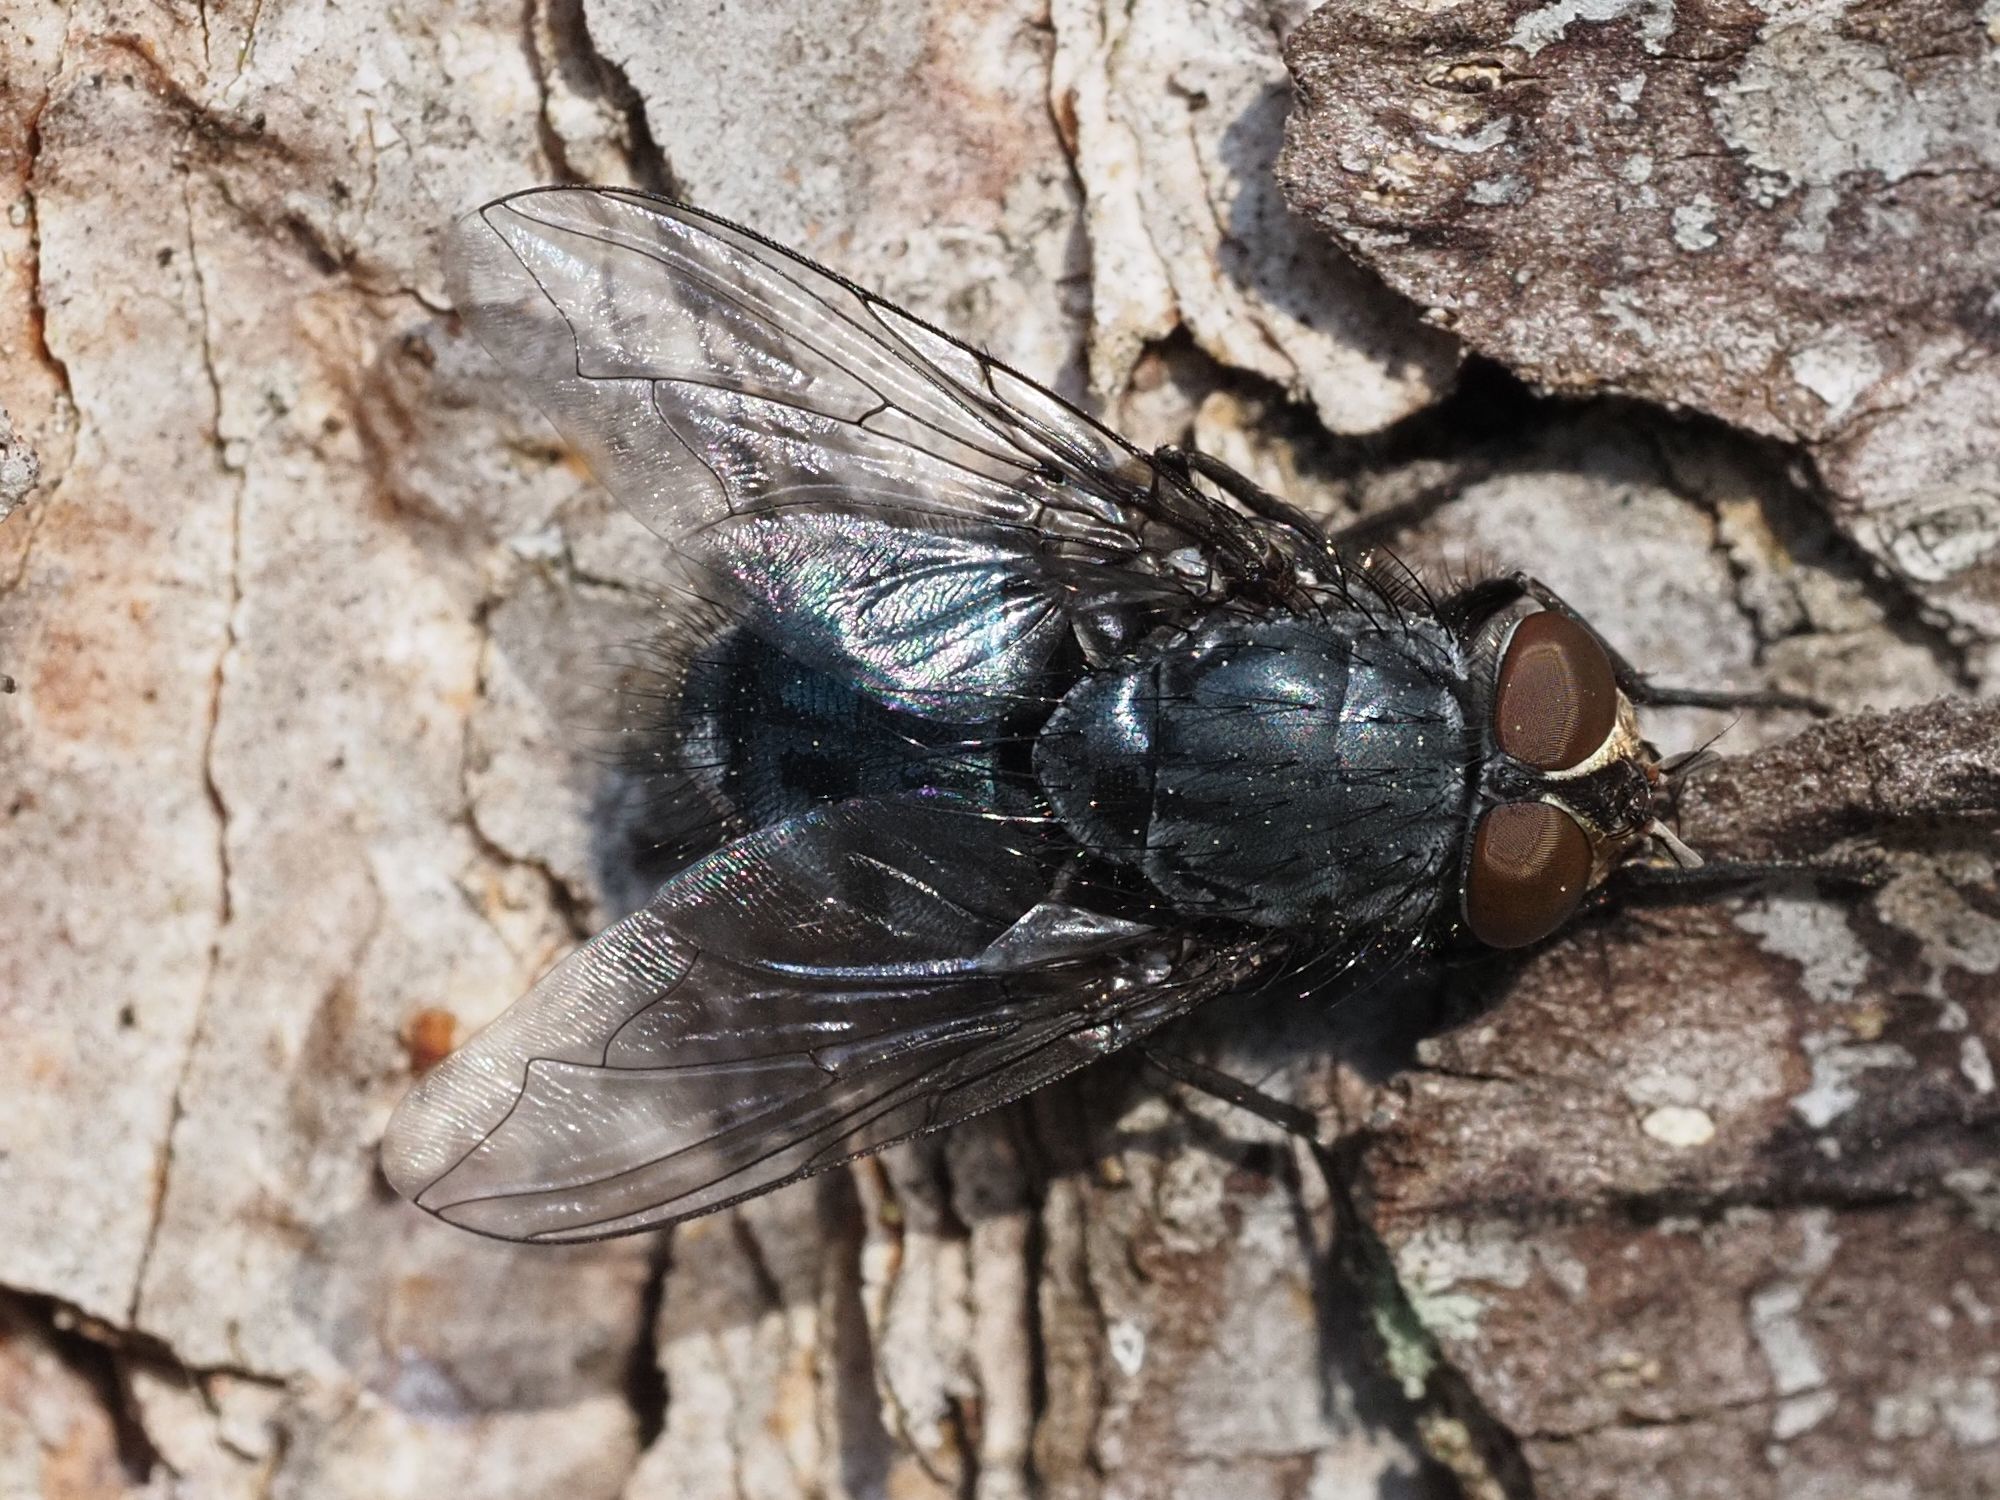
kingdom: Animalia
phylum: Arthropoda
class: Insecta
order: Diptera
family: Calliphoridae
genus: Calliphora
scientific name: Calliphora vicina
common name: Common blow flie
